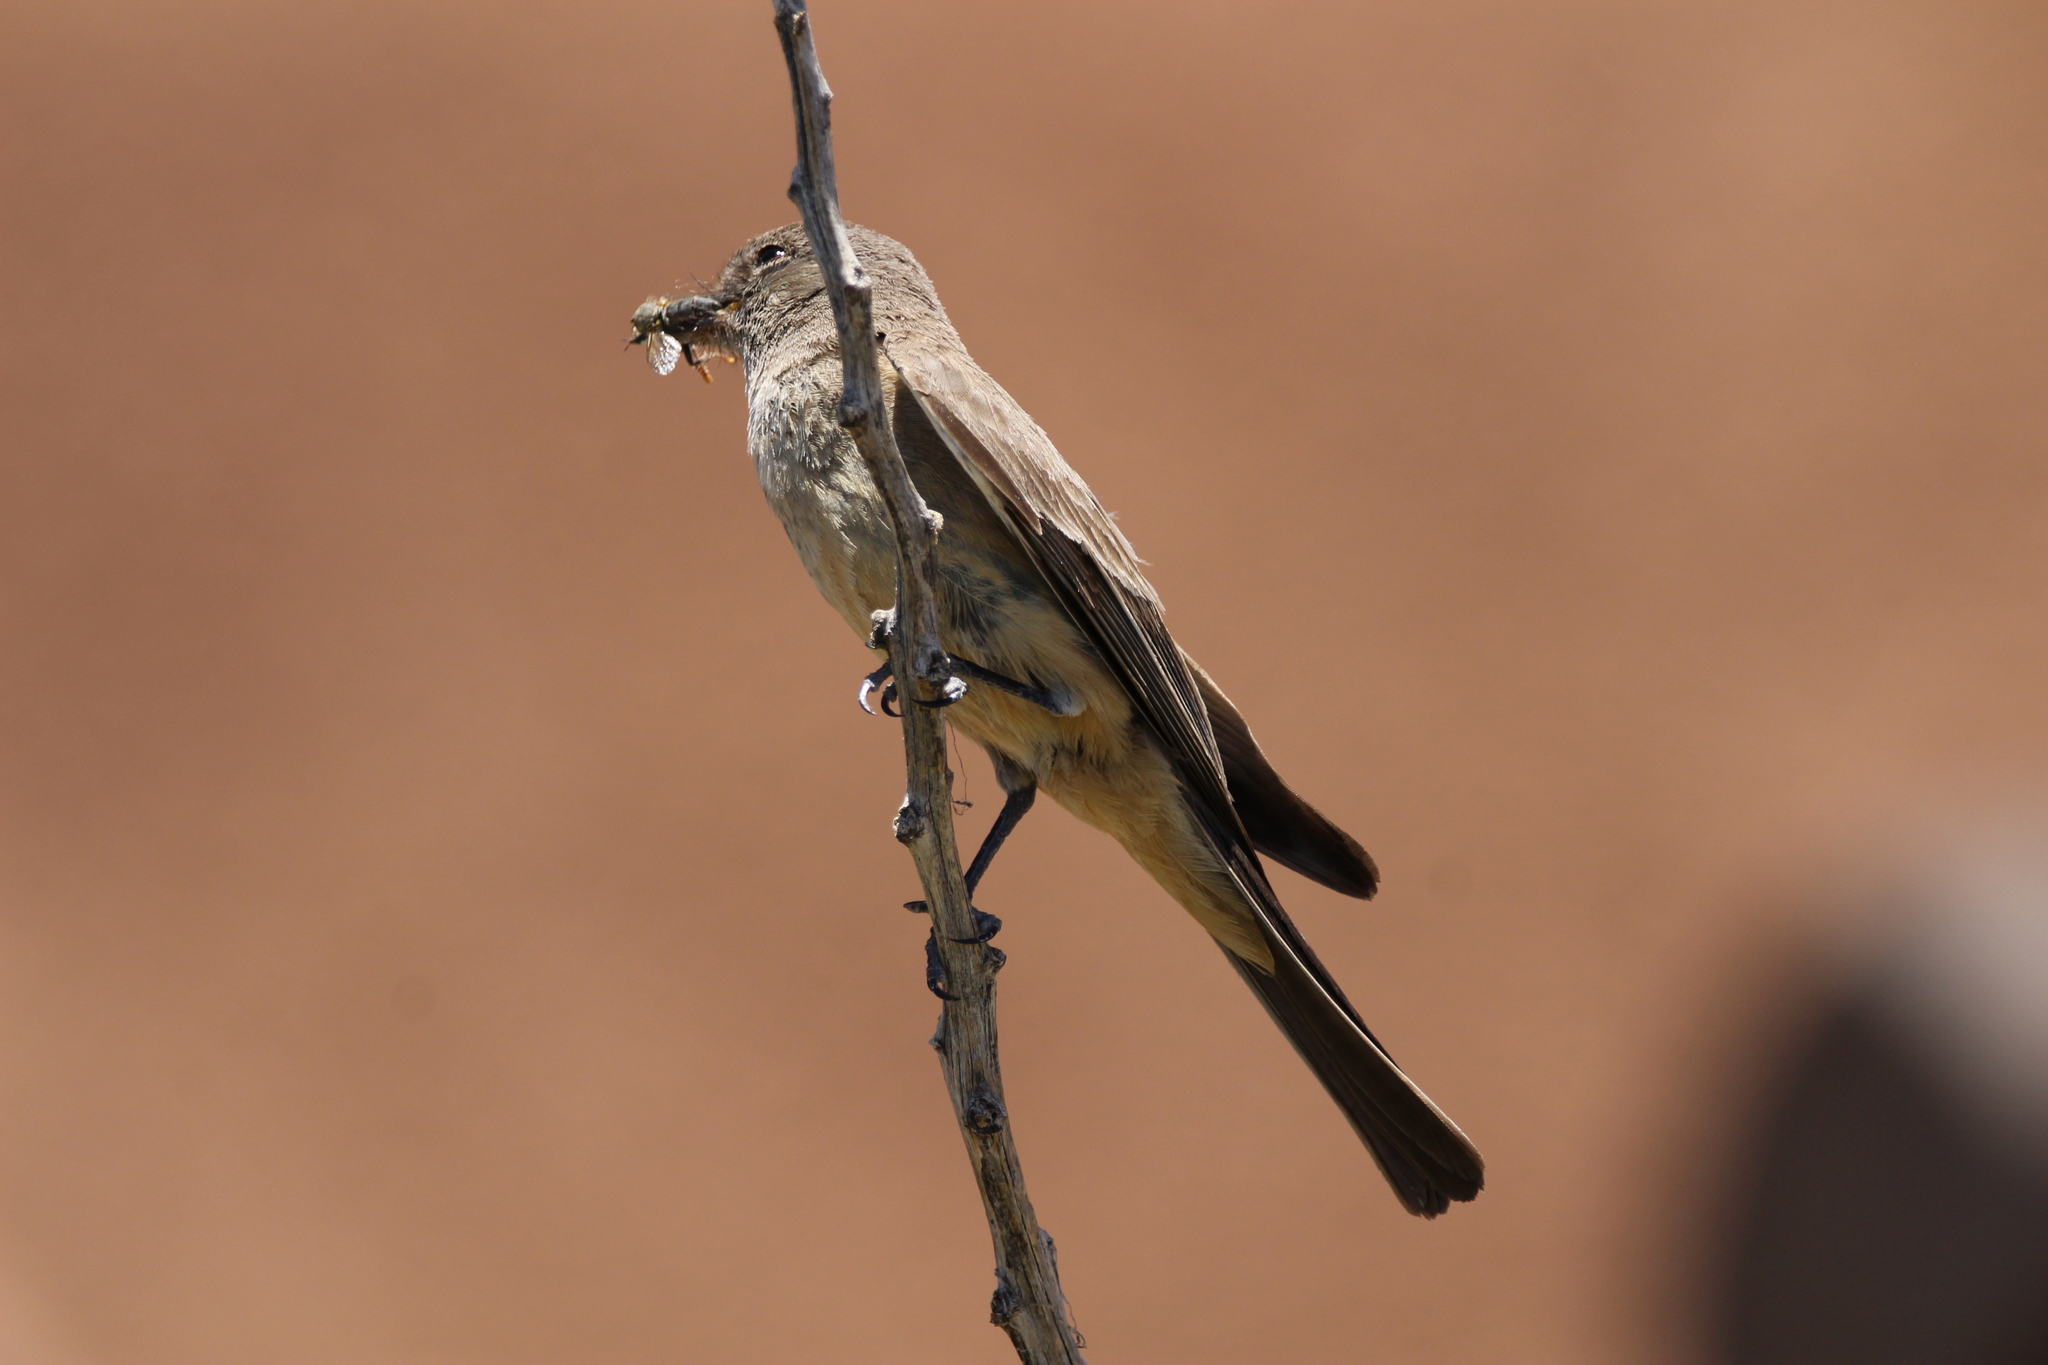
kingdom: Animalia
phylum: Chordata
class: Aves
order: Passeriformes
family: Tyrannidae
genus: Sayornis
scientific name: Sayornis saya
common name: Say's phoebe
